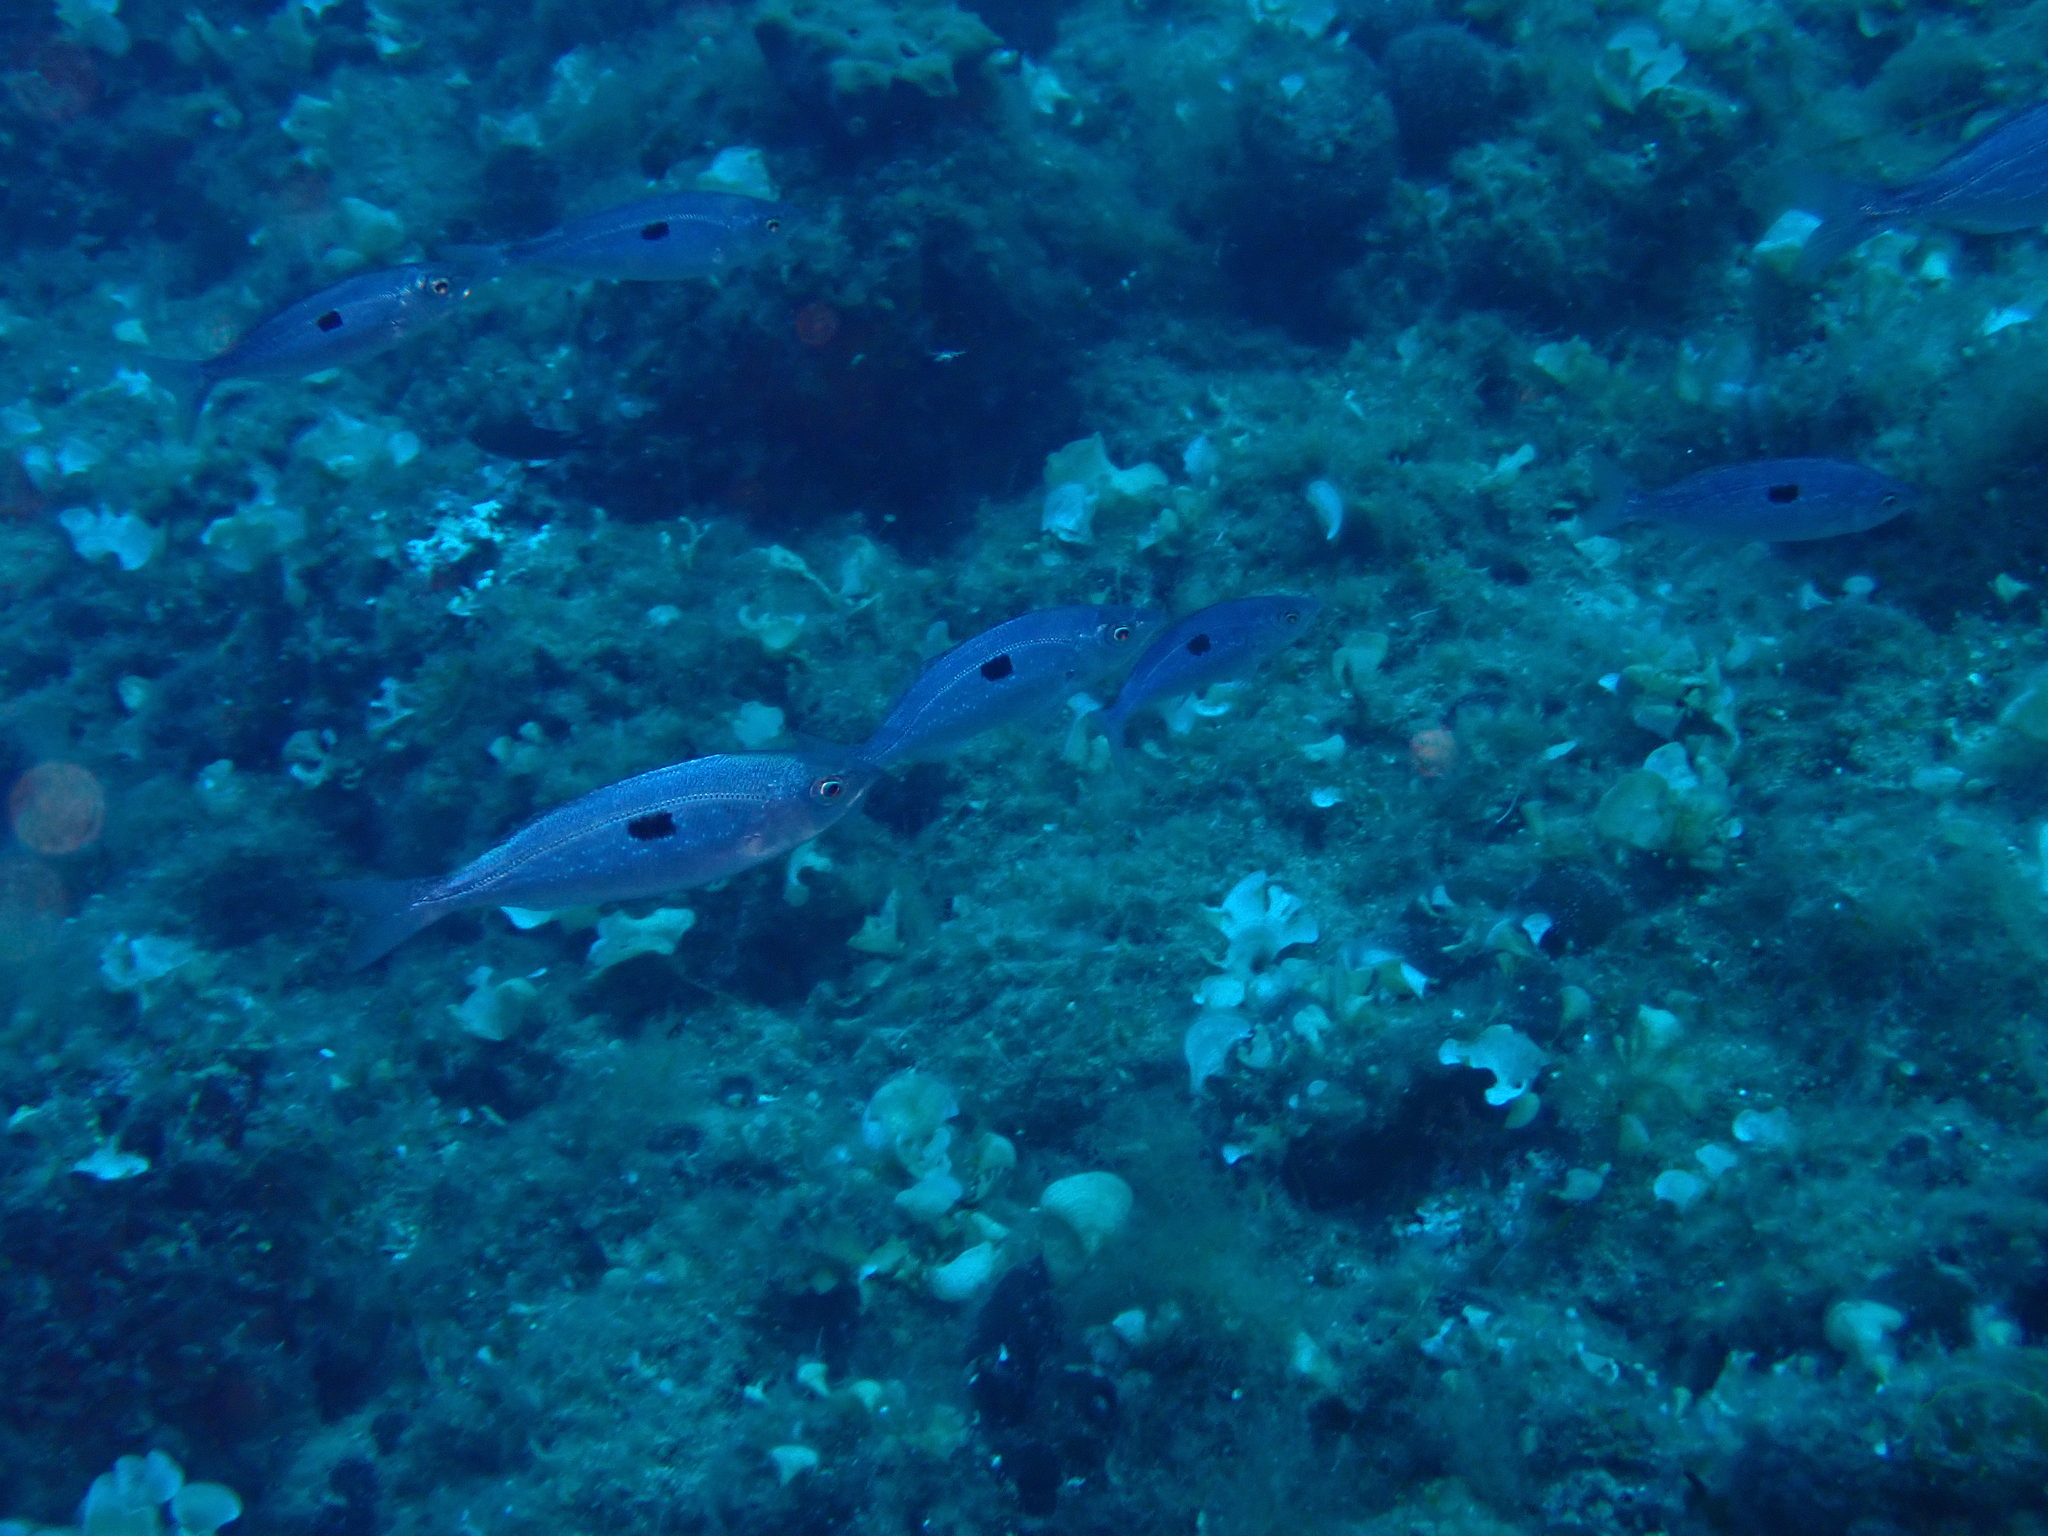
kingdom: Animalia
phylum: Chordata
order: Perciformes
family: Sparidae
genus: Spicara
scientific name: Spicara maena
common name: Blotched picarel
